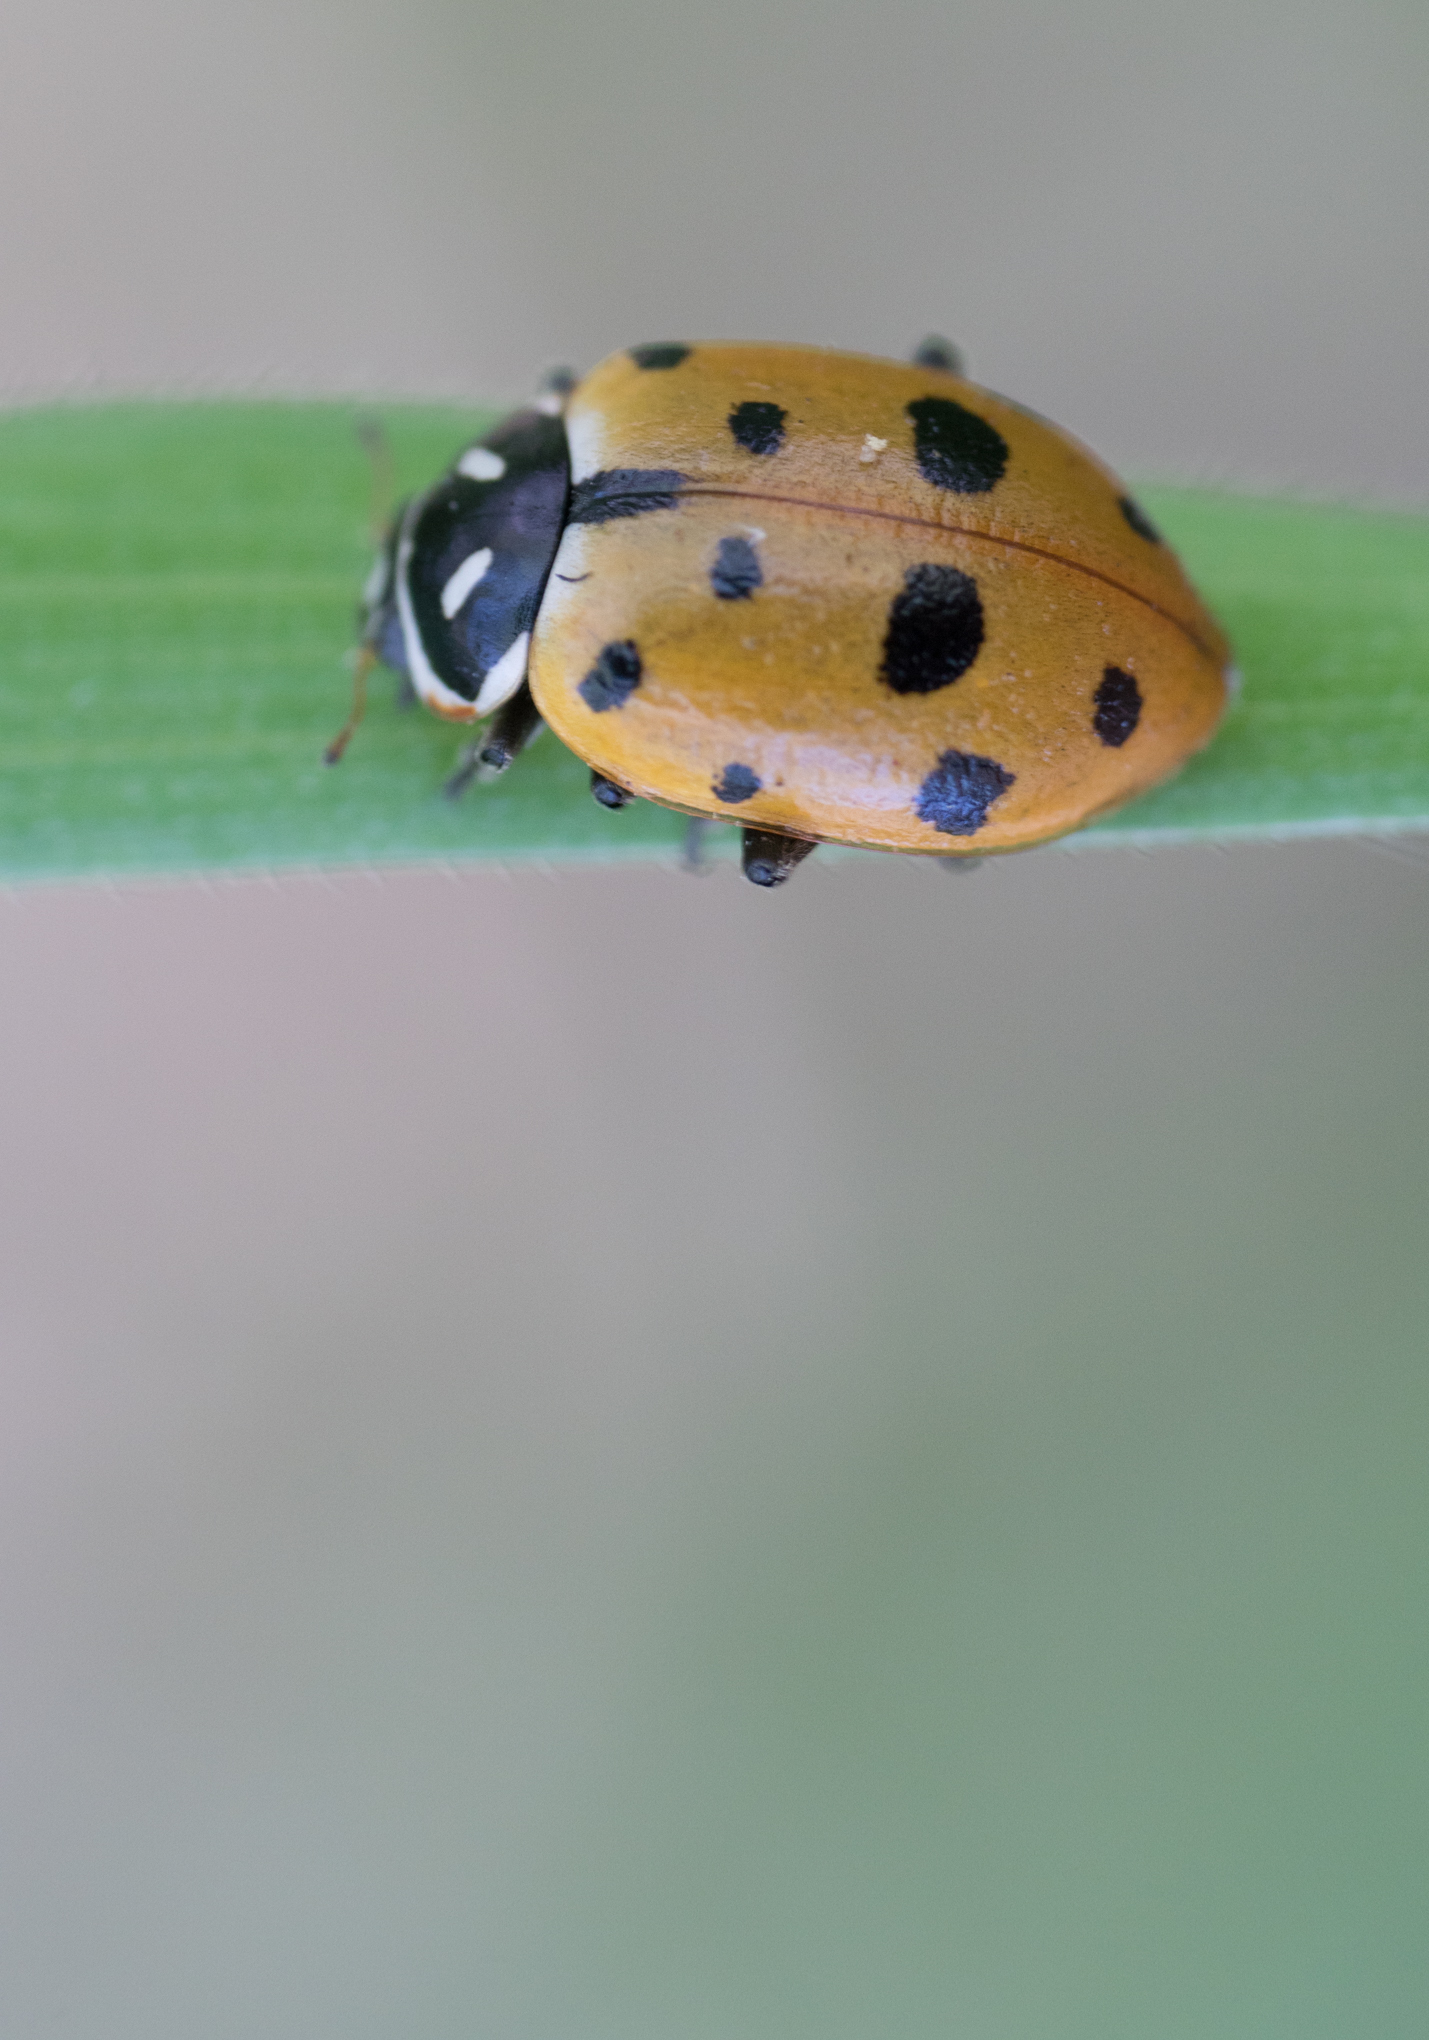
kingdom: Animalia
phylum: Arthropoda
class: Insecta
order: Coleoptera
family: Coccinellidae
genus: Hippodamia
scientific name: Hippodamia convergens
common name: Convergent lady beetle
